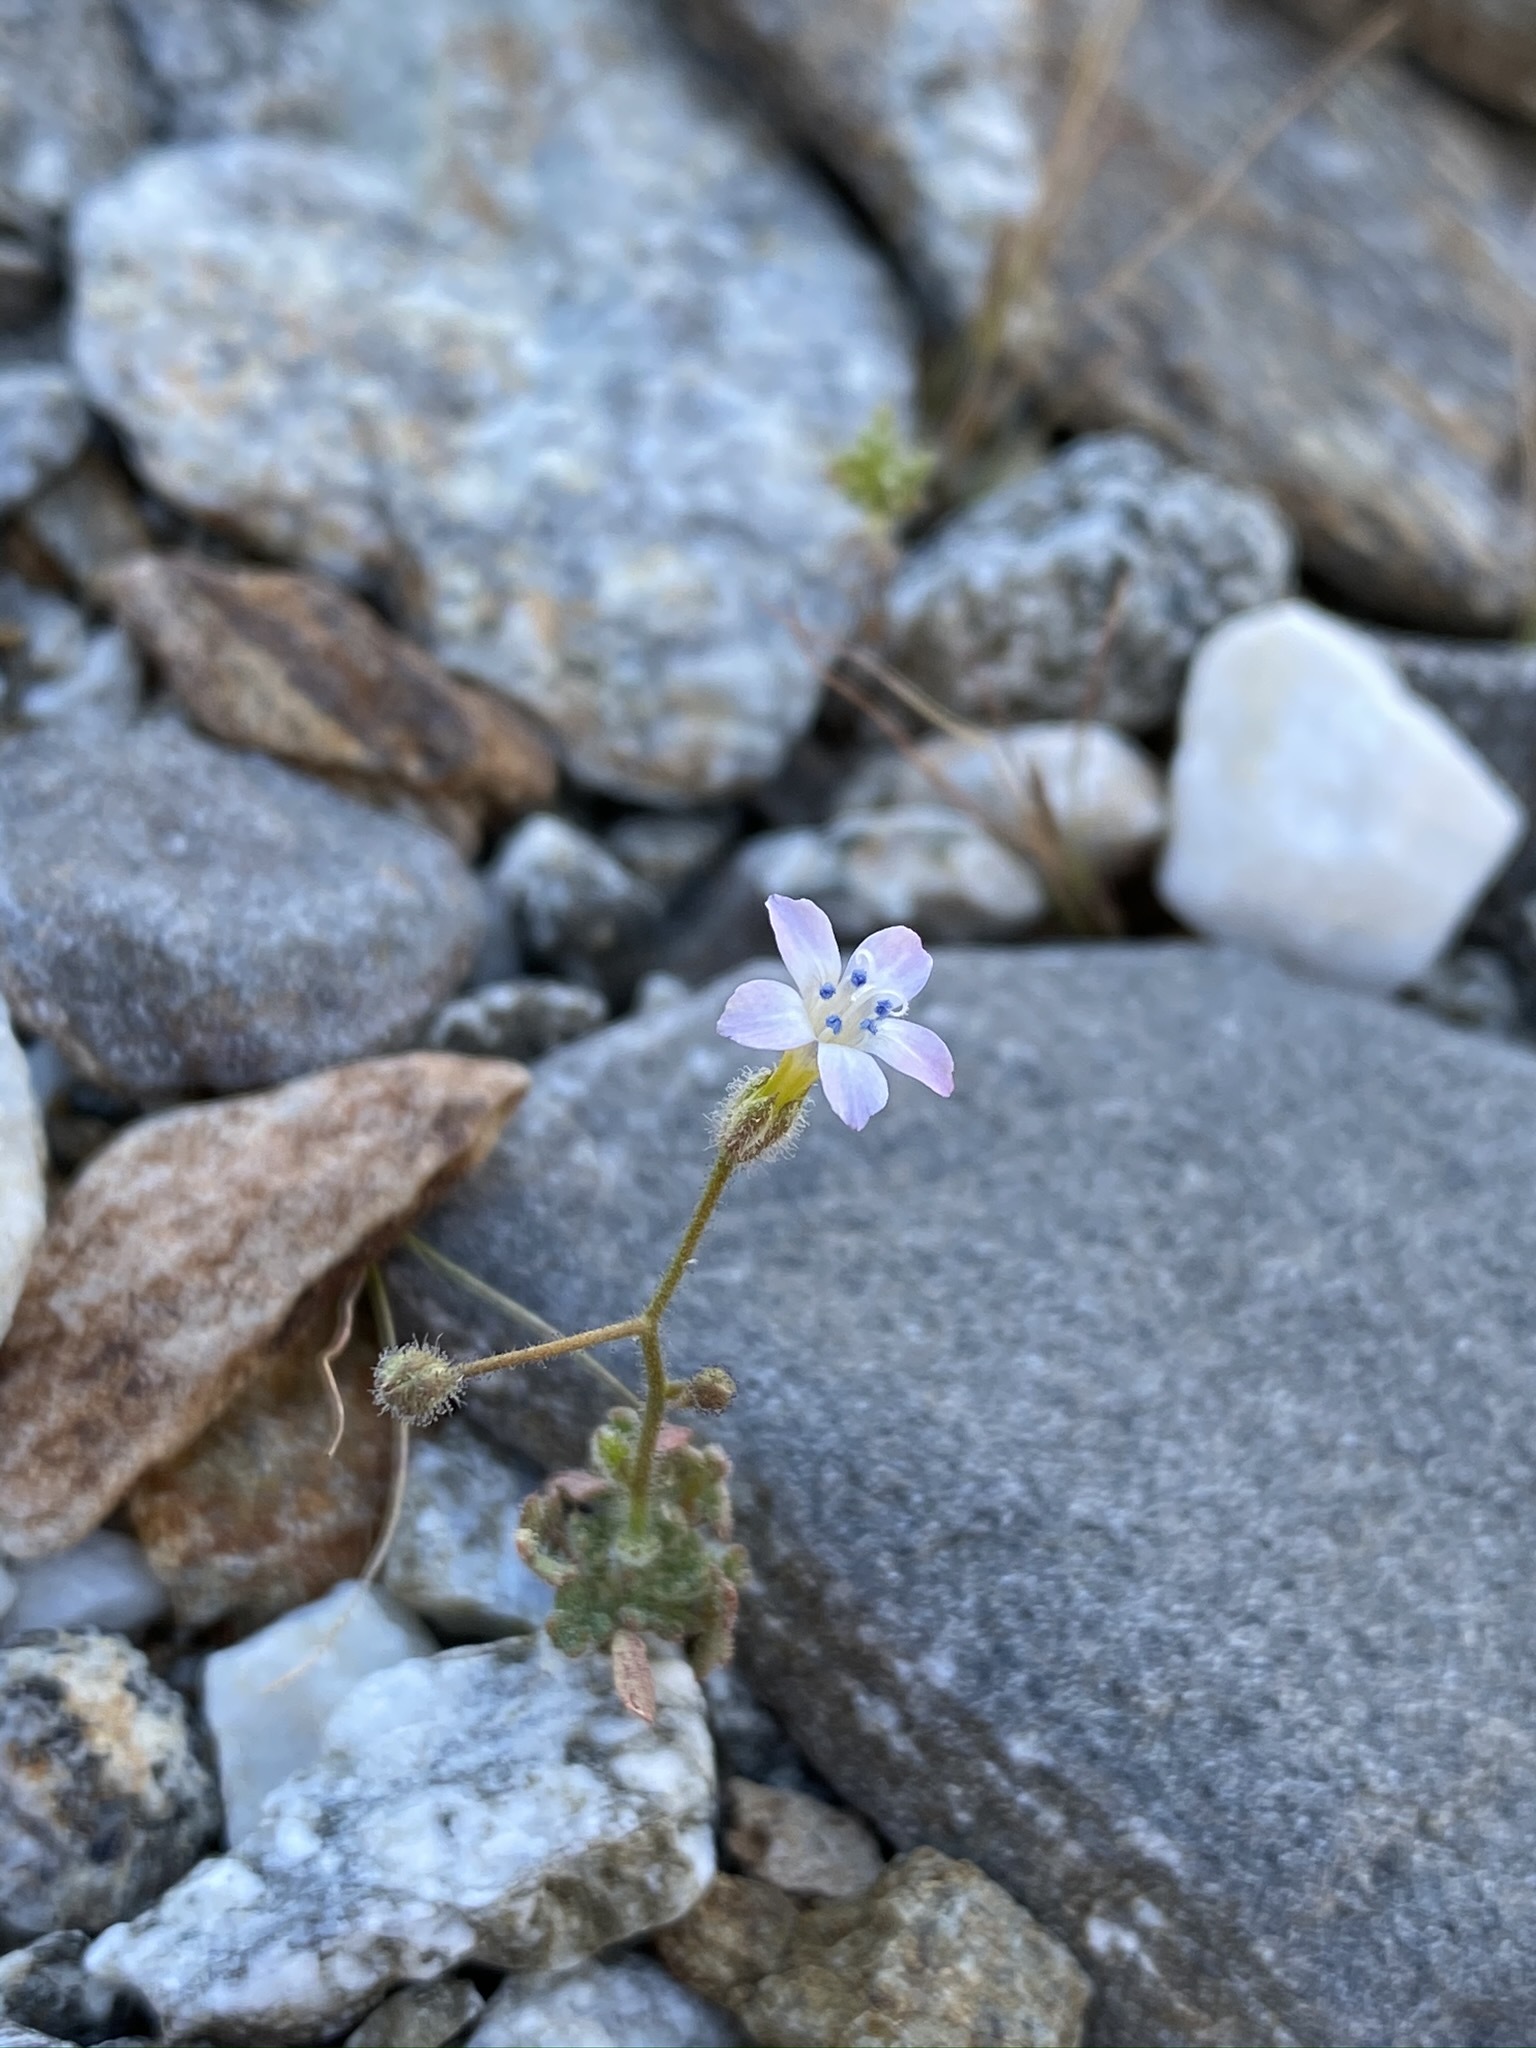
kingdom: Plantae
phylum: Tracheophyta
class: Magnoliopsida
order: Ericales
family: Polemoniaceae
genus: Gilia
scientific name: Gilia stellata
